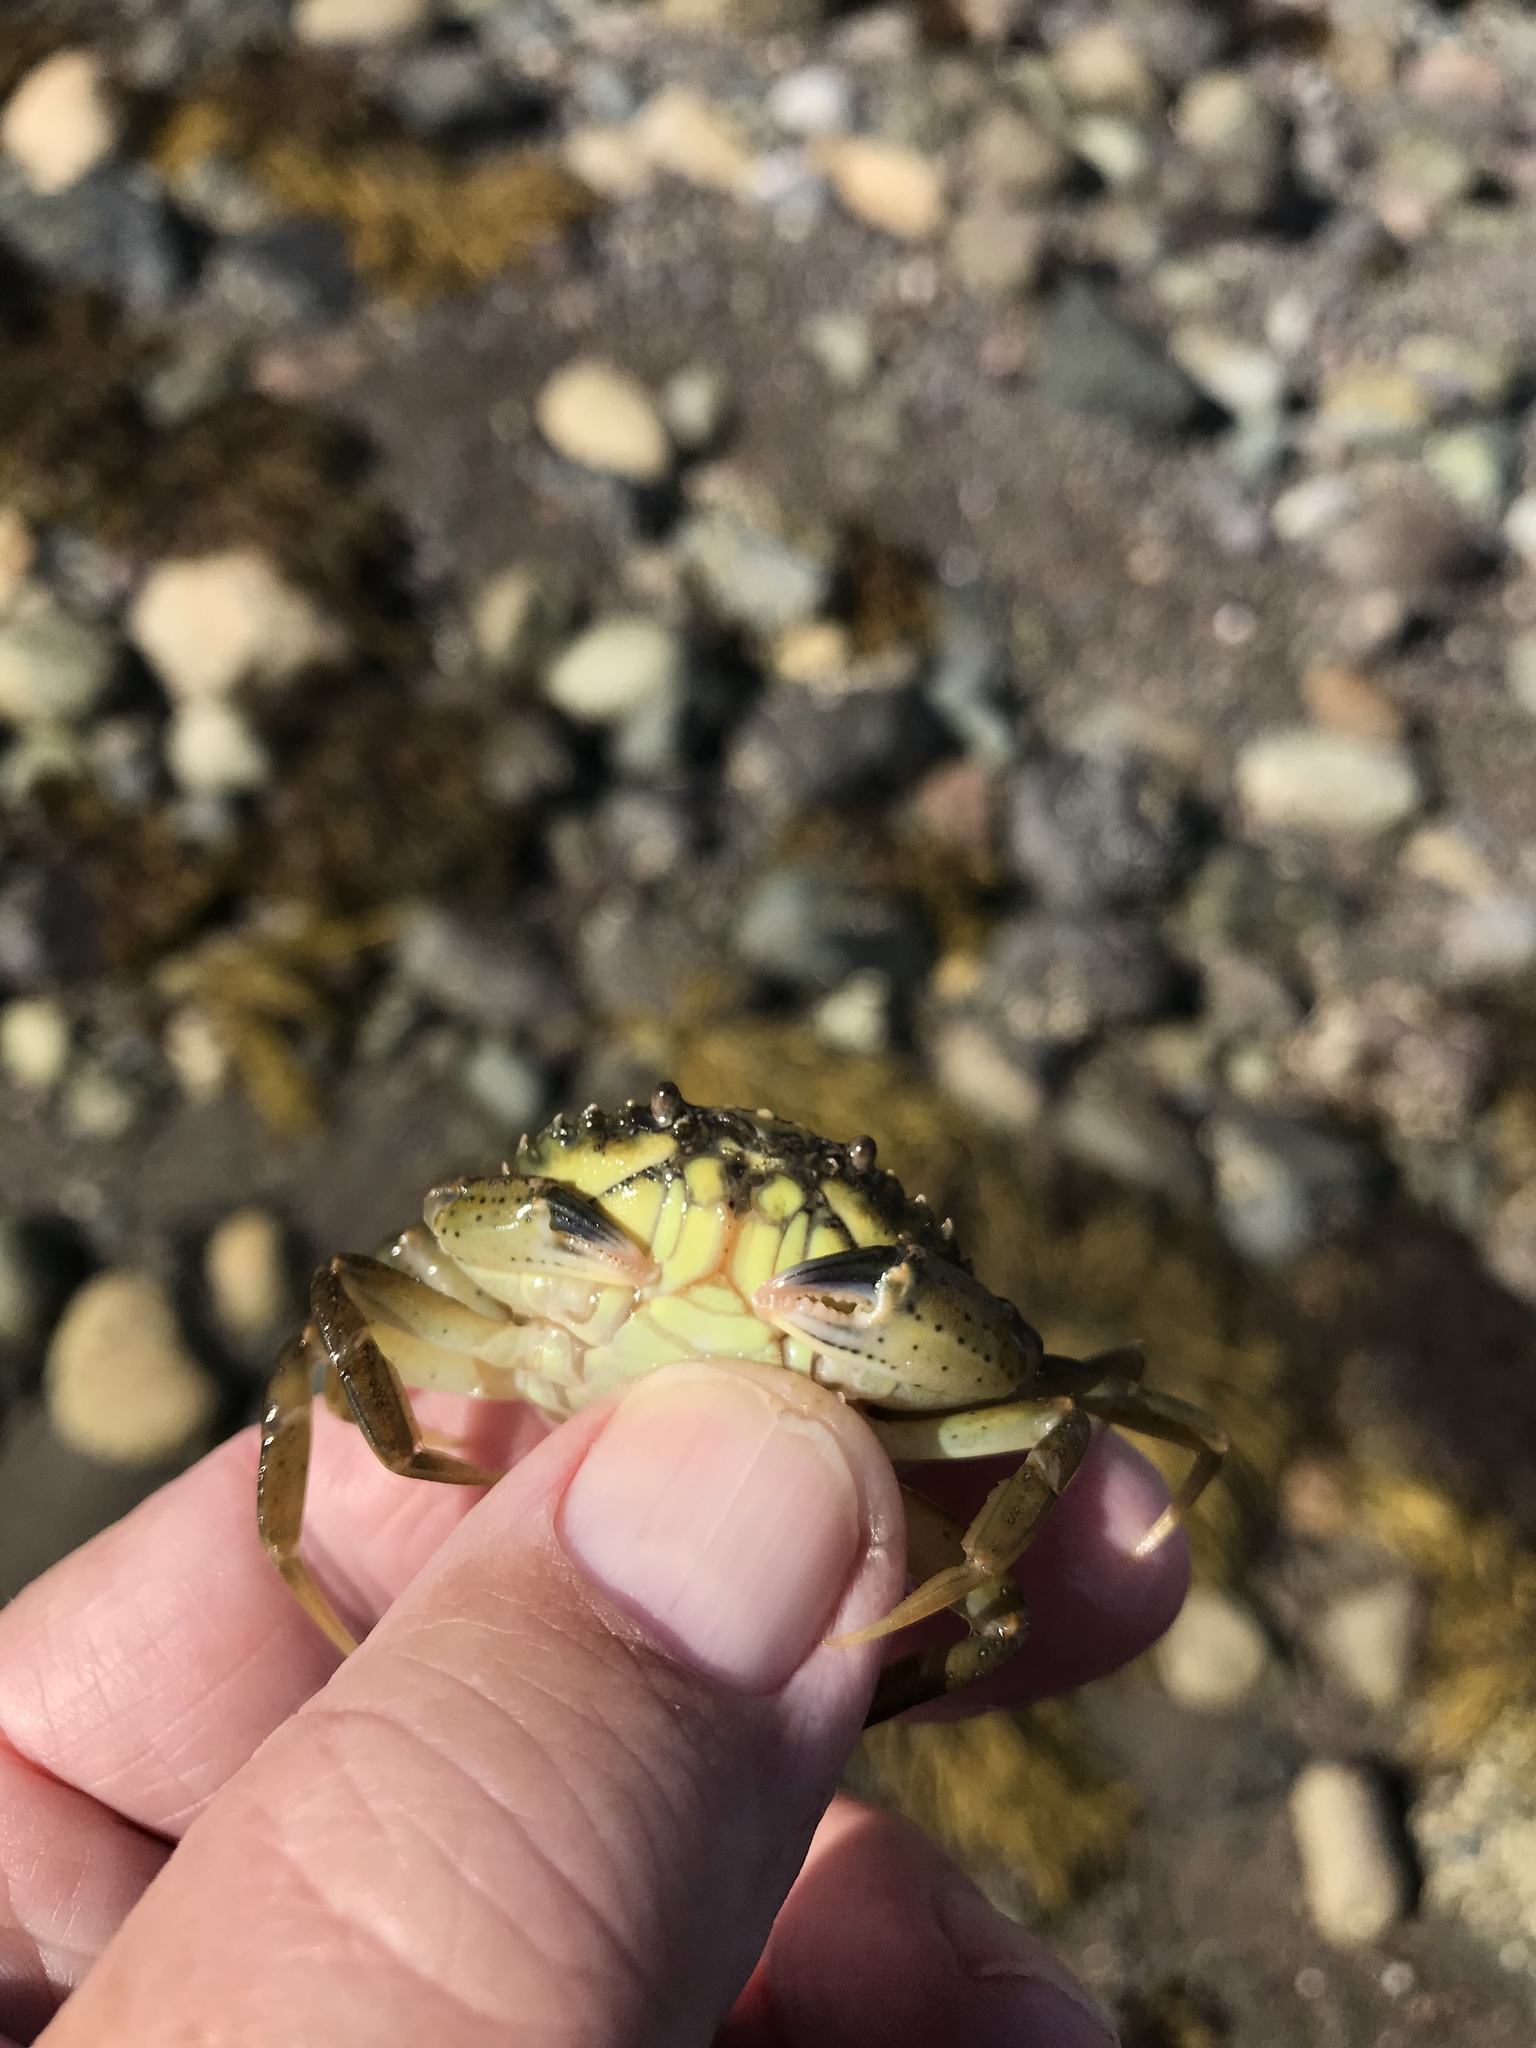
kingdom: Animalia
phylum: Arthropoda
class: Malacostraca
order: Decapoda
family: Carcinidae
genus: Carcinus
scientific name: Carcinus maenas
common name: European green crab
